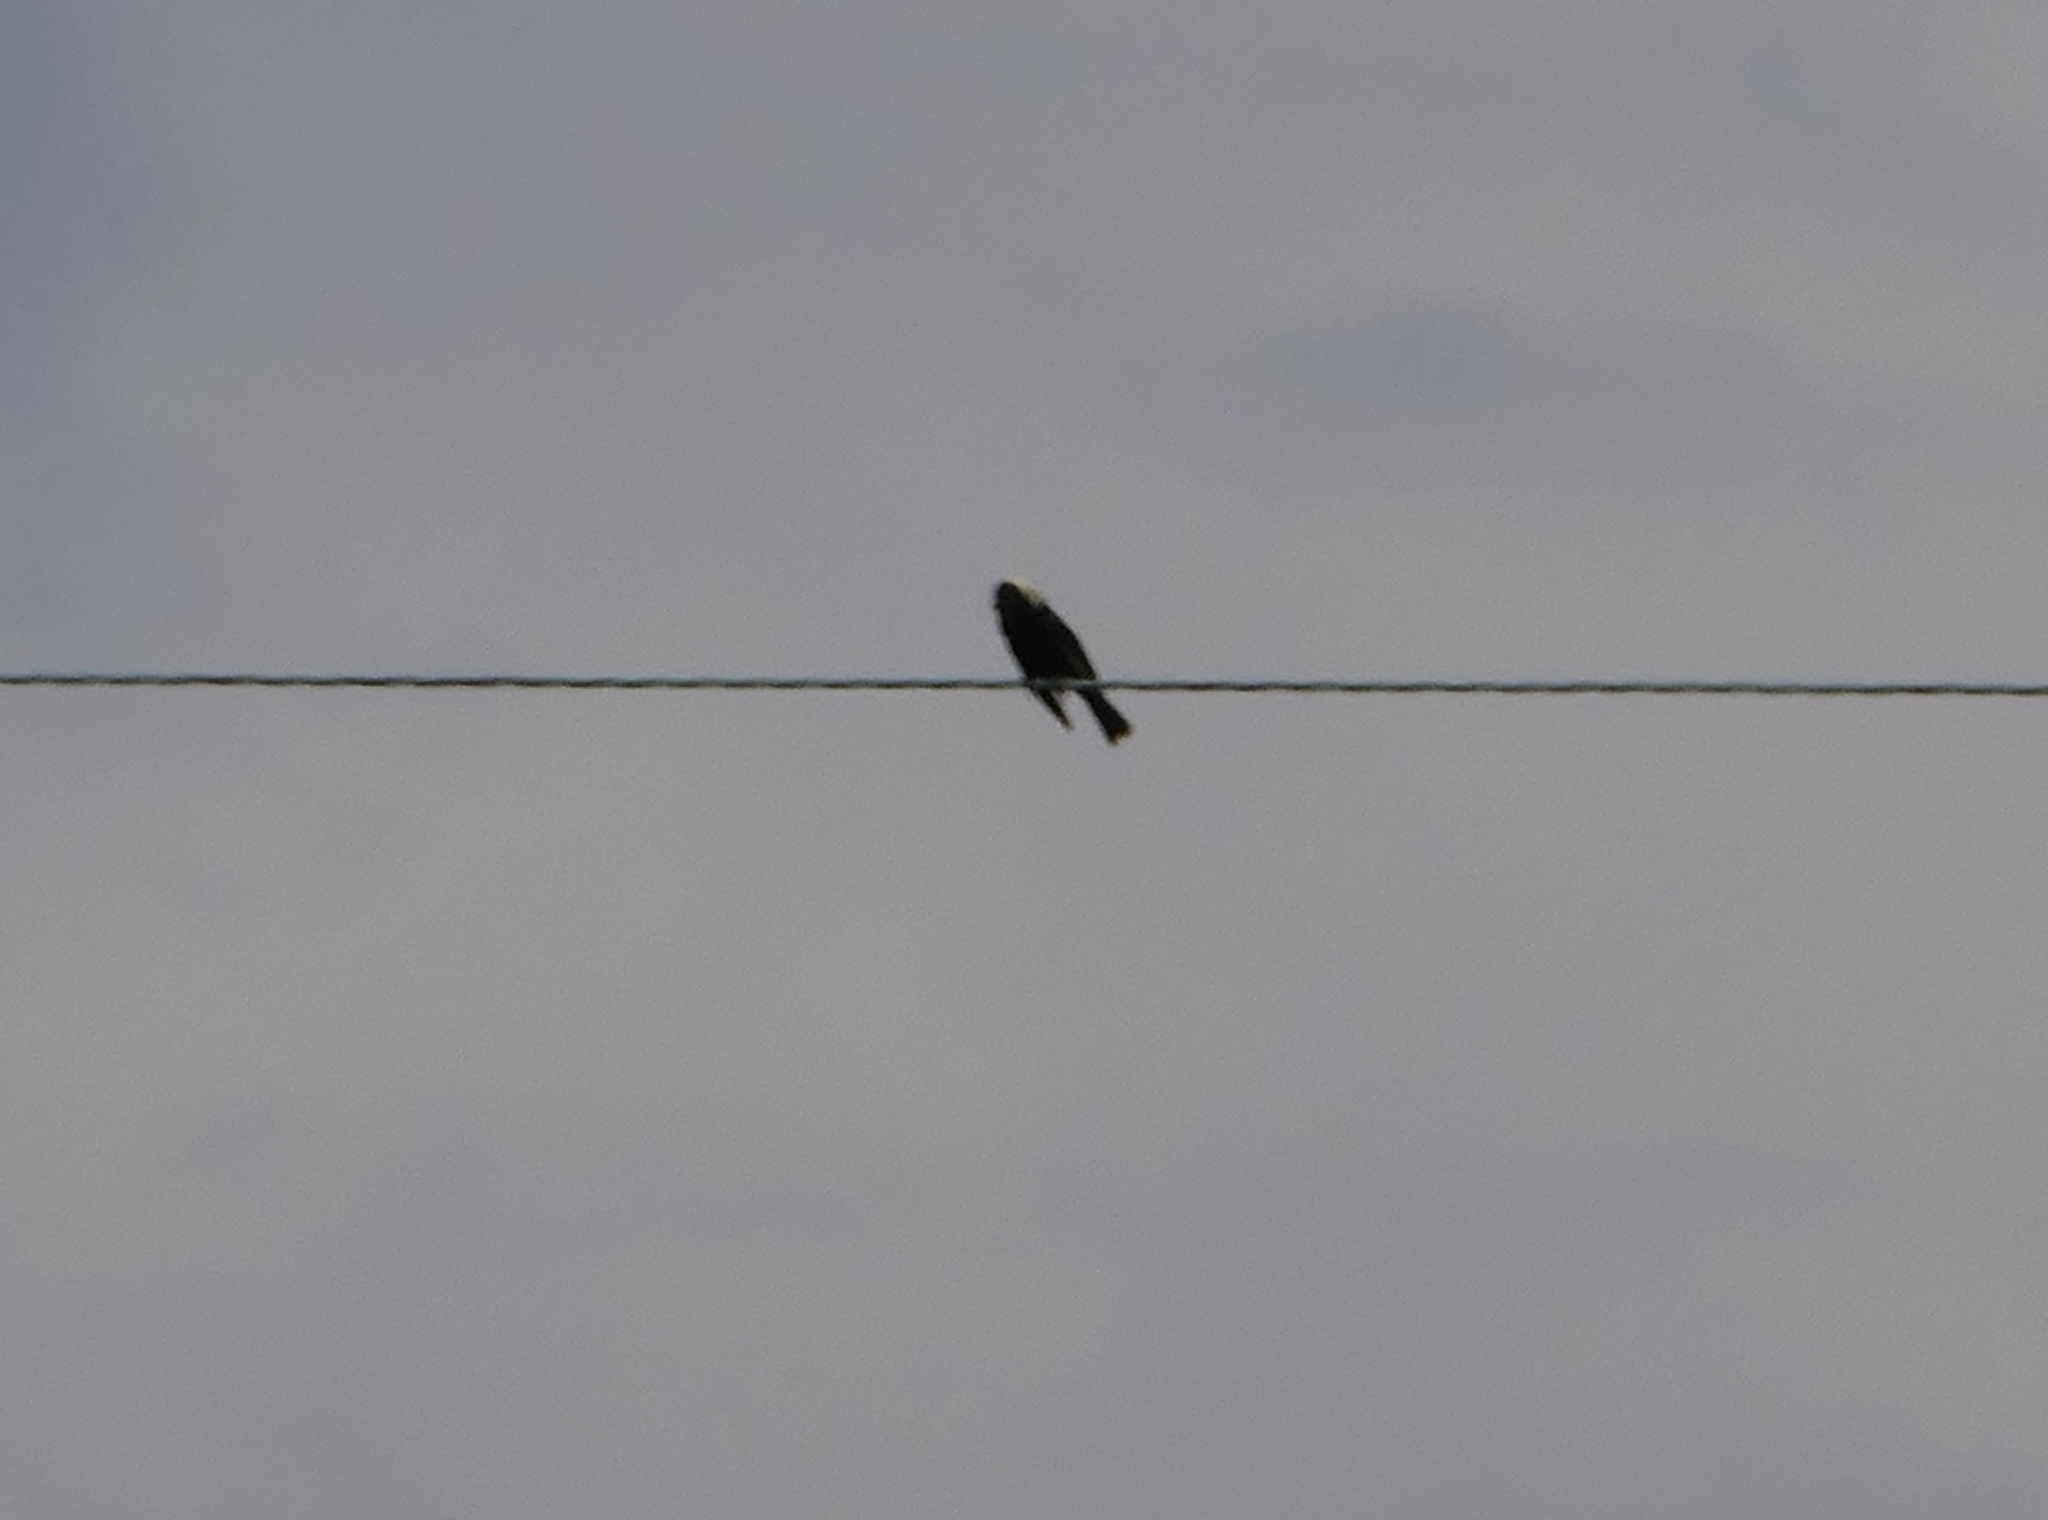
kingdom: Animalia
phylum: Chordata
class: Aves
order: Passeriformes
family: Icteridae
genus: Dolichonyx
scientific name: Dolichonyx oryzivorus
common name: Bobolink
